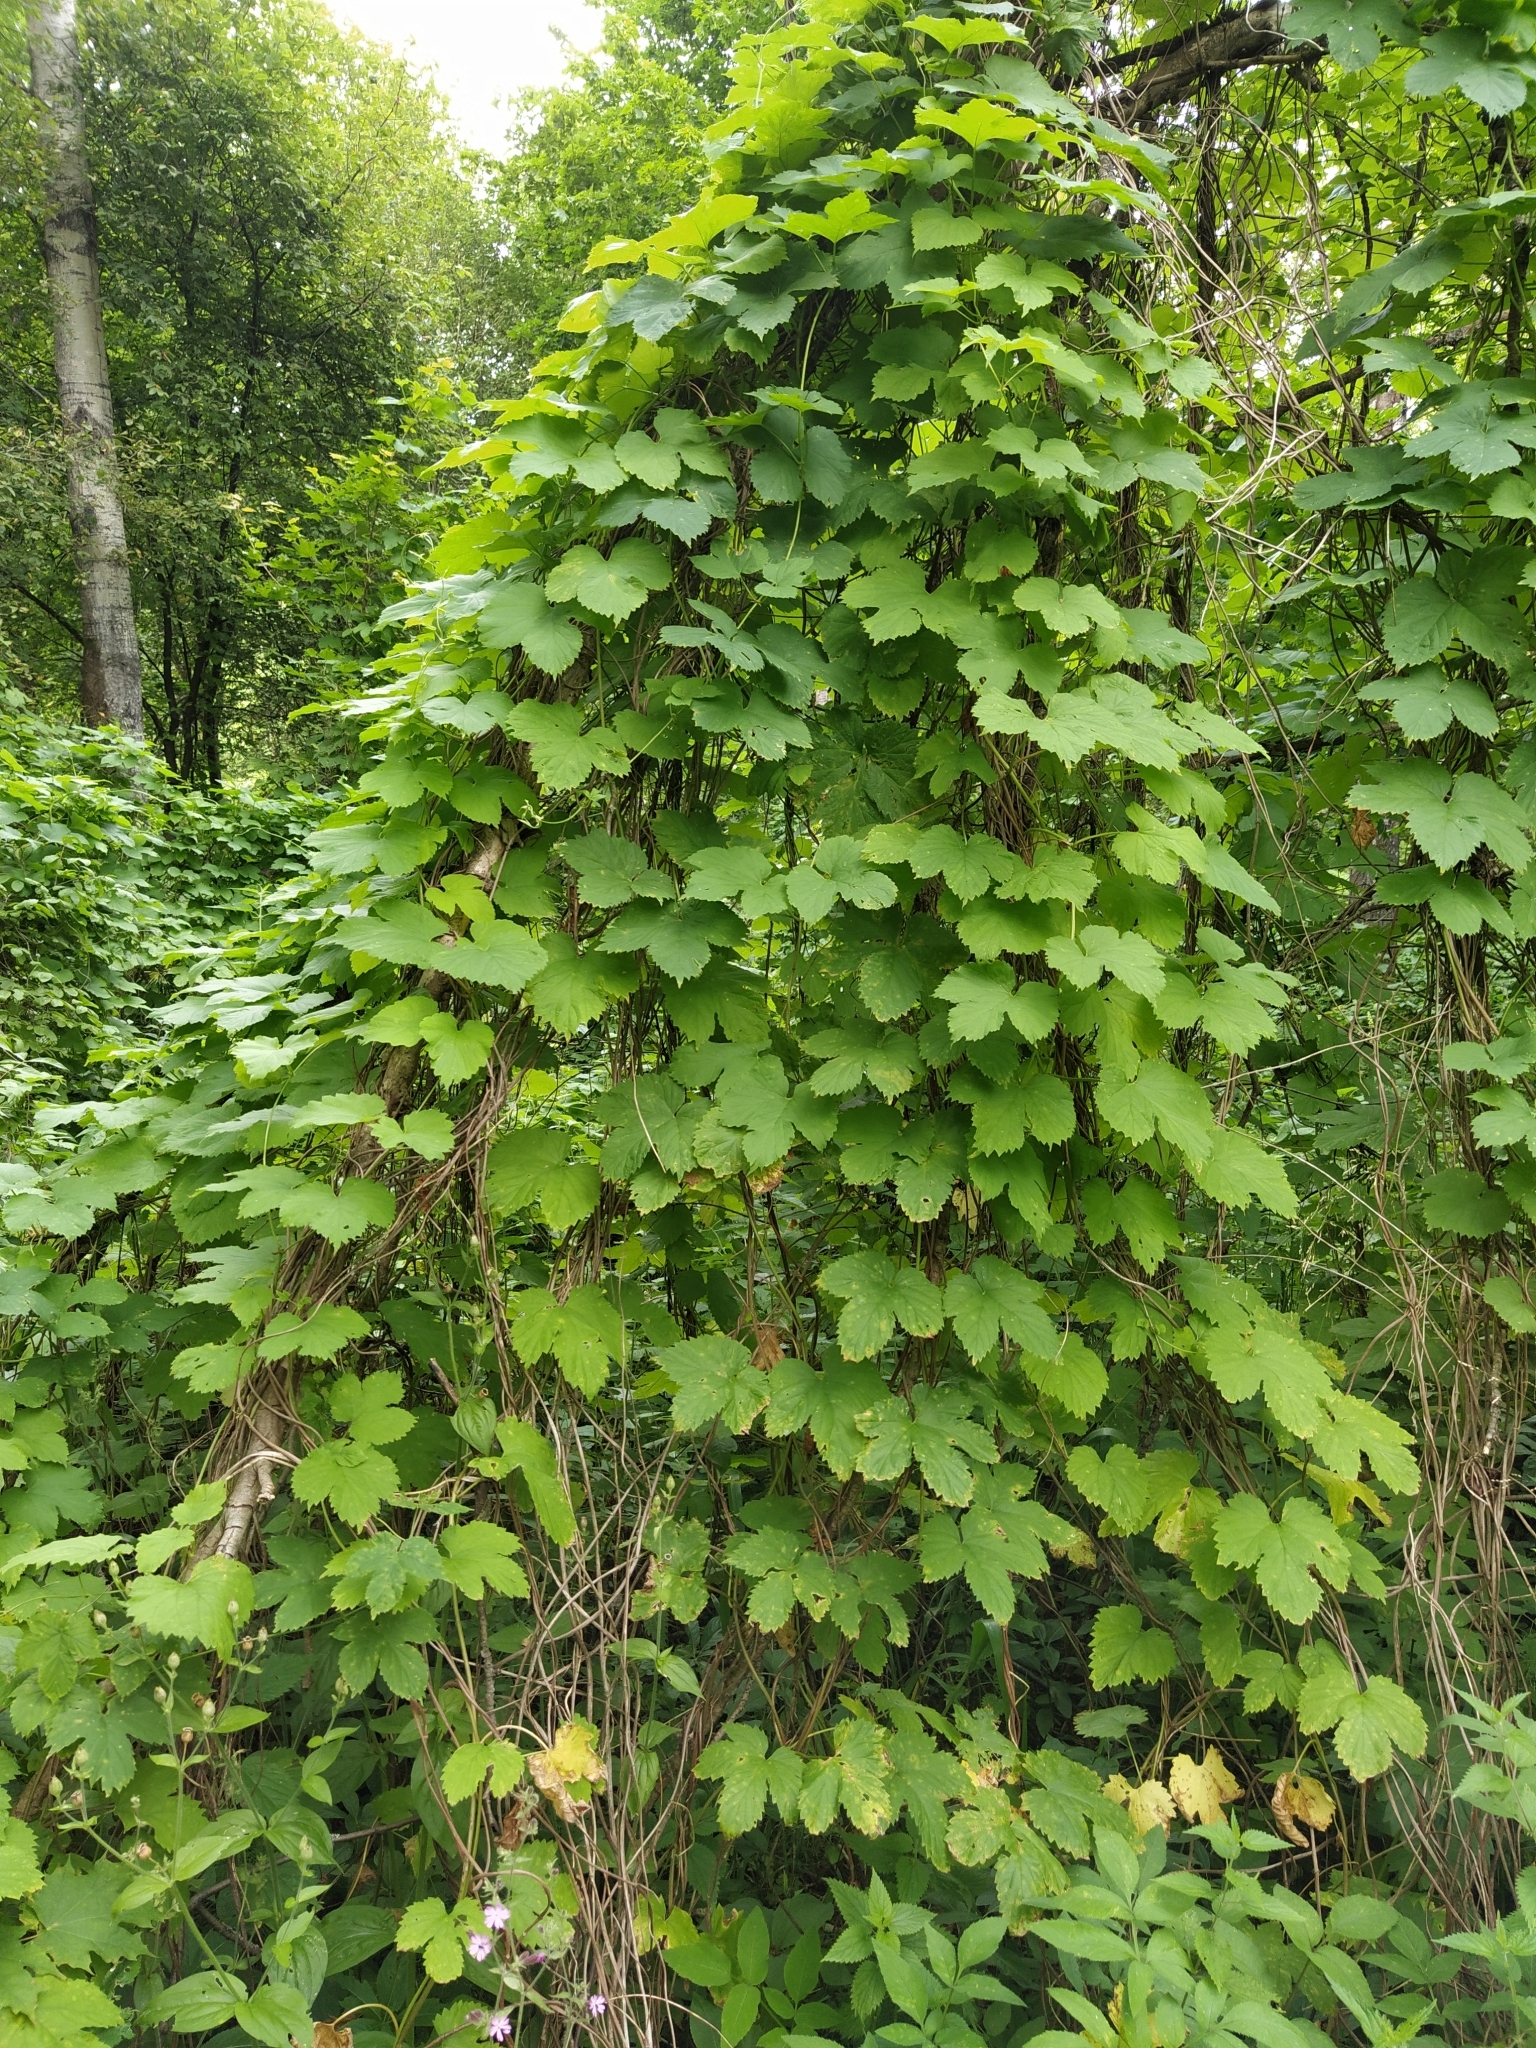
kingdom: Plantae
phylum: Tracheophyta
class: Magnoliopsida
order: Rosales
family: Cannabaceae
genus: Humulus
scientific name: Humulus lupulus
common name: Hop
